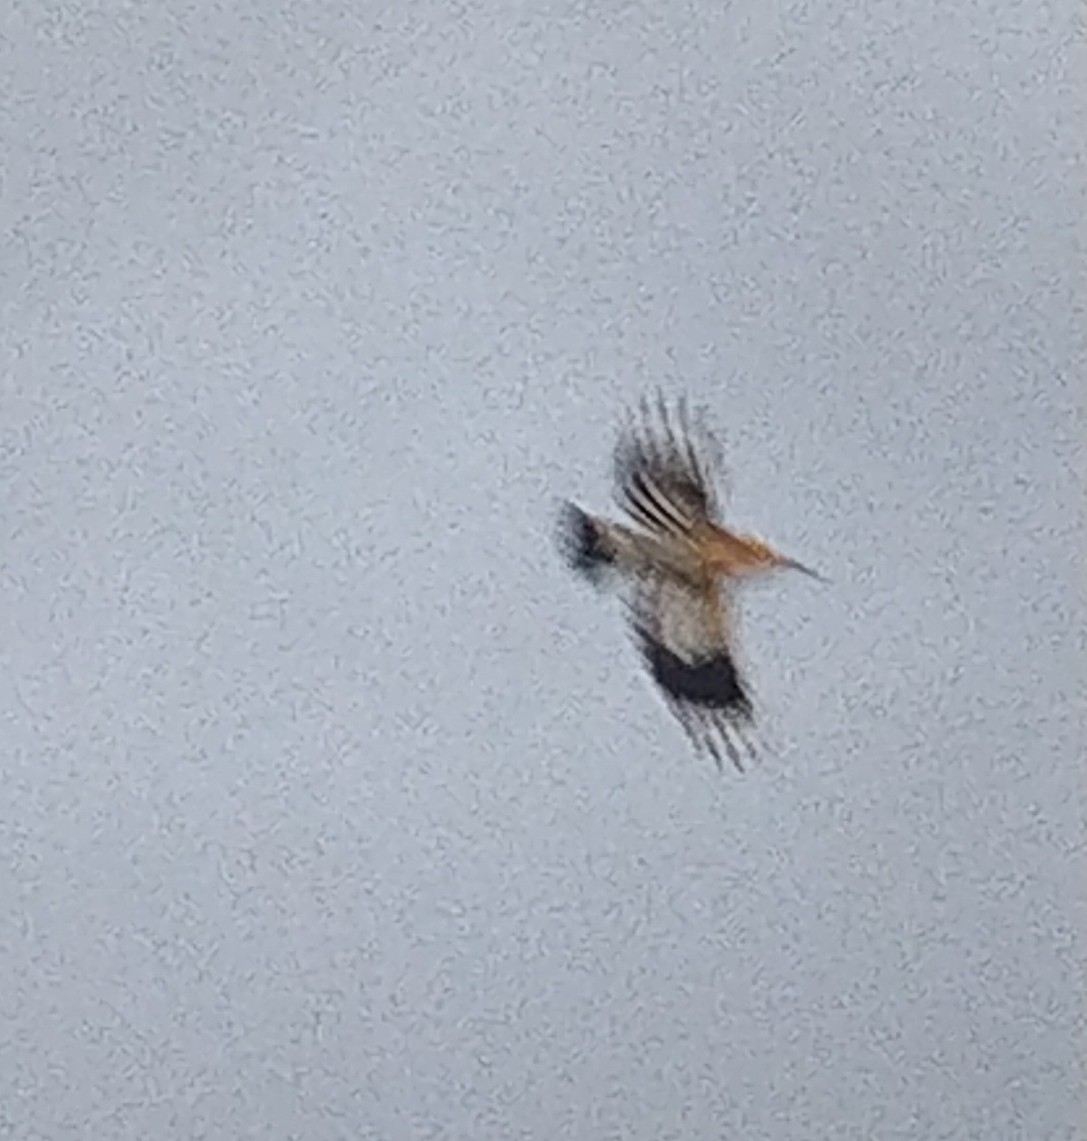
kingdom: Animalia
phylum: Chordata
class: Aves
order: Bucerotiformes
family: Upupidae
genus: Upupa
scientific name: Upupa epops
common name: Eurasian hoopoe
